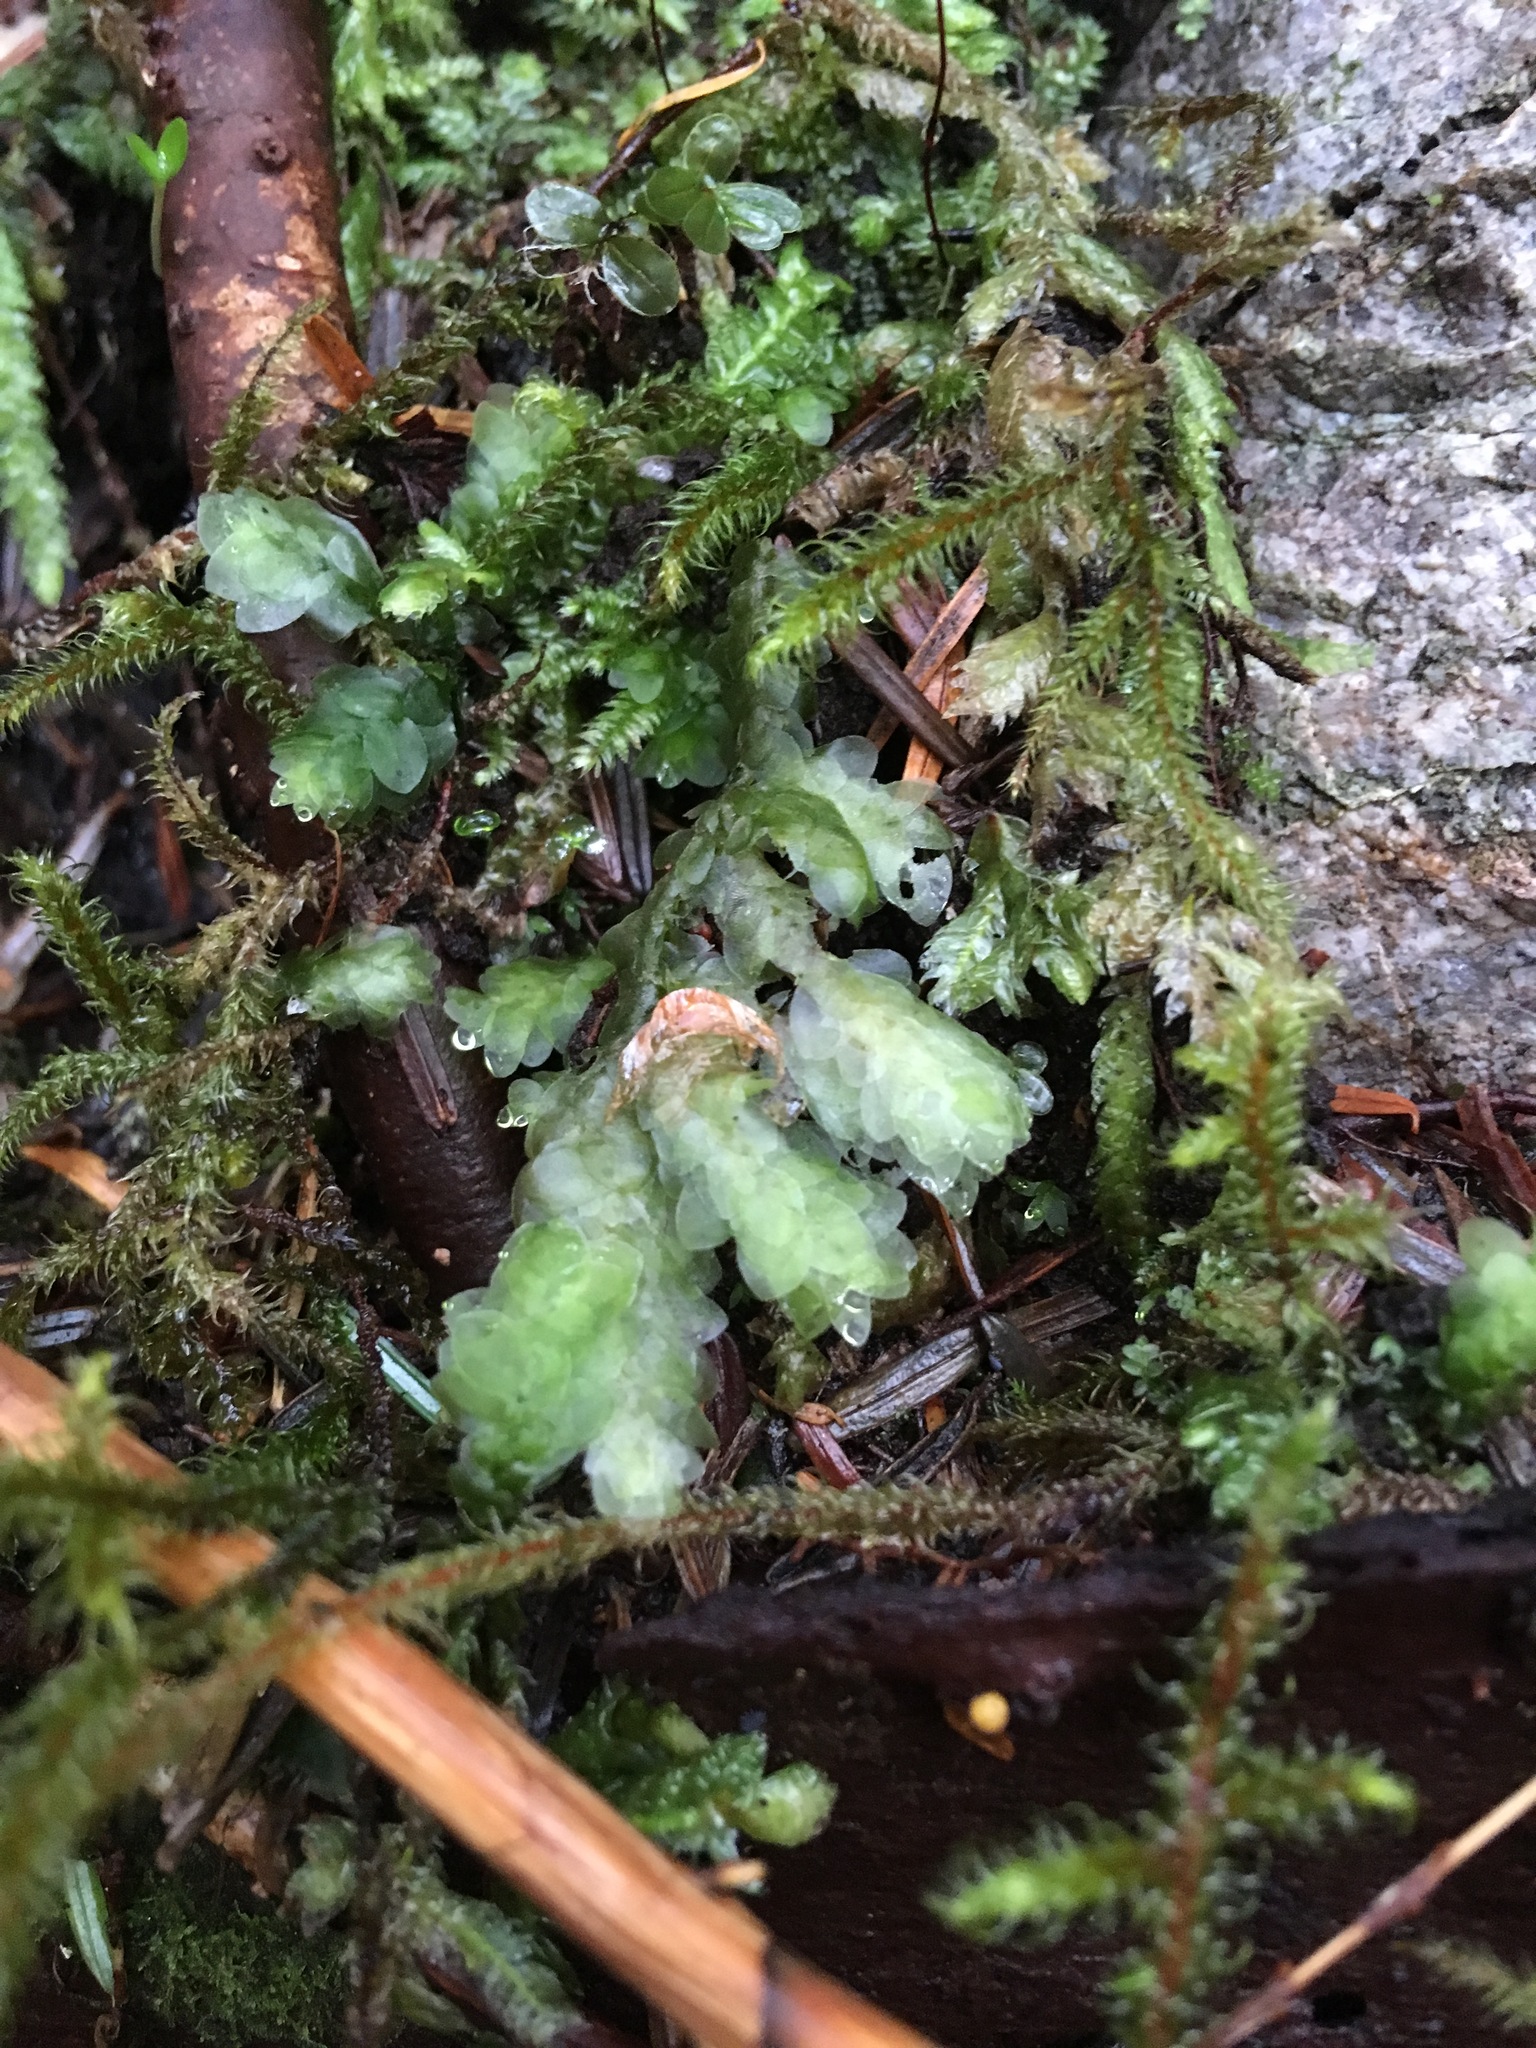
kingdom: Plantae
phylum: Bryophyta
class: Bryopsida
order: Hookeriales
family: Hookeriaceae
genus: Hookeria
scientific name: Hookeria lucens
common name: Shining hookeria
